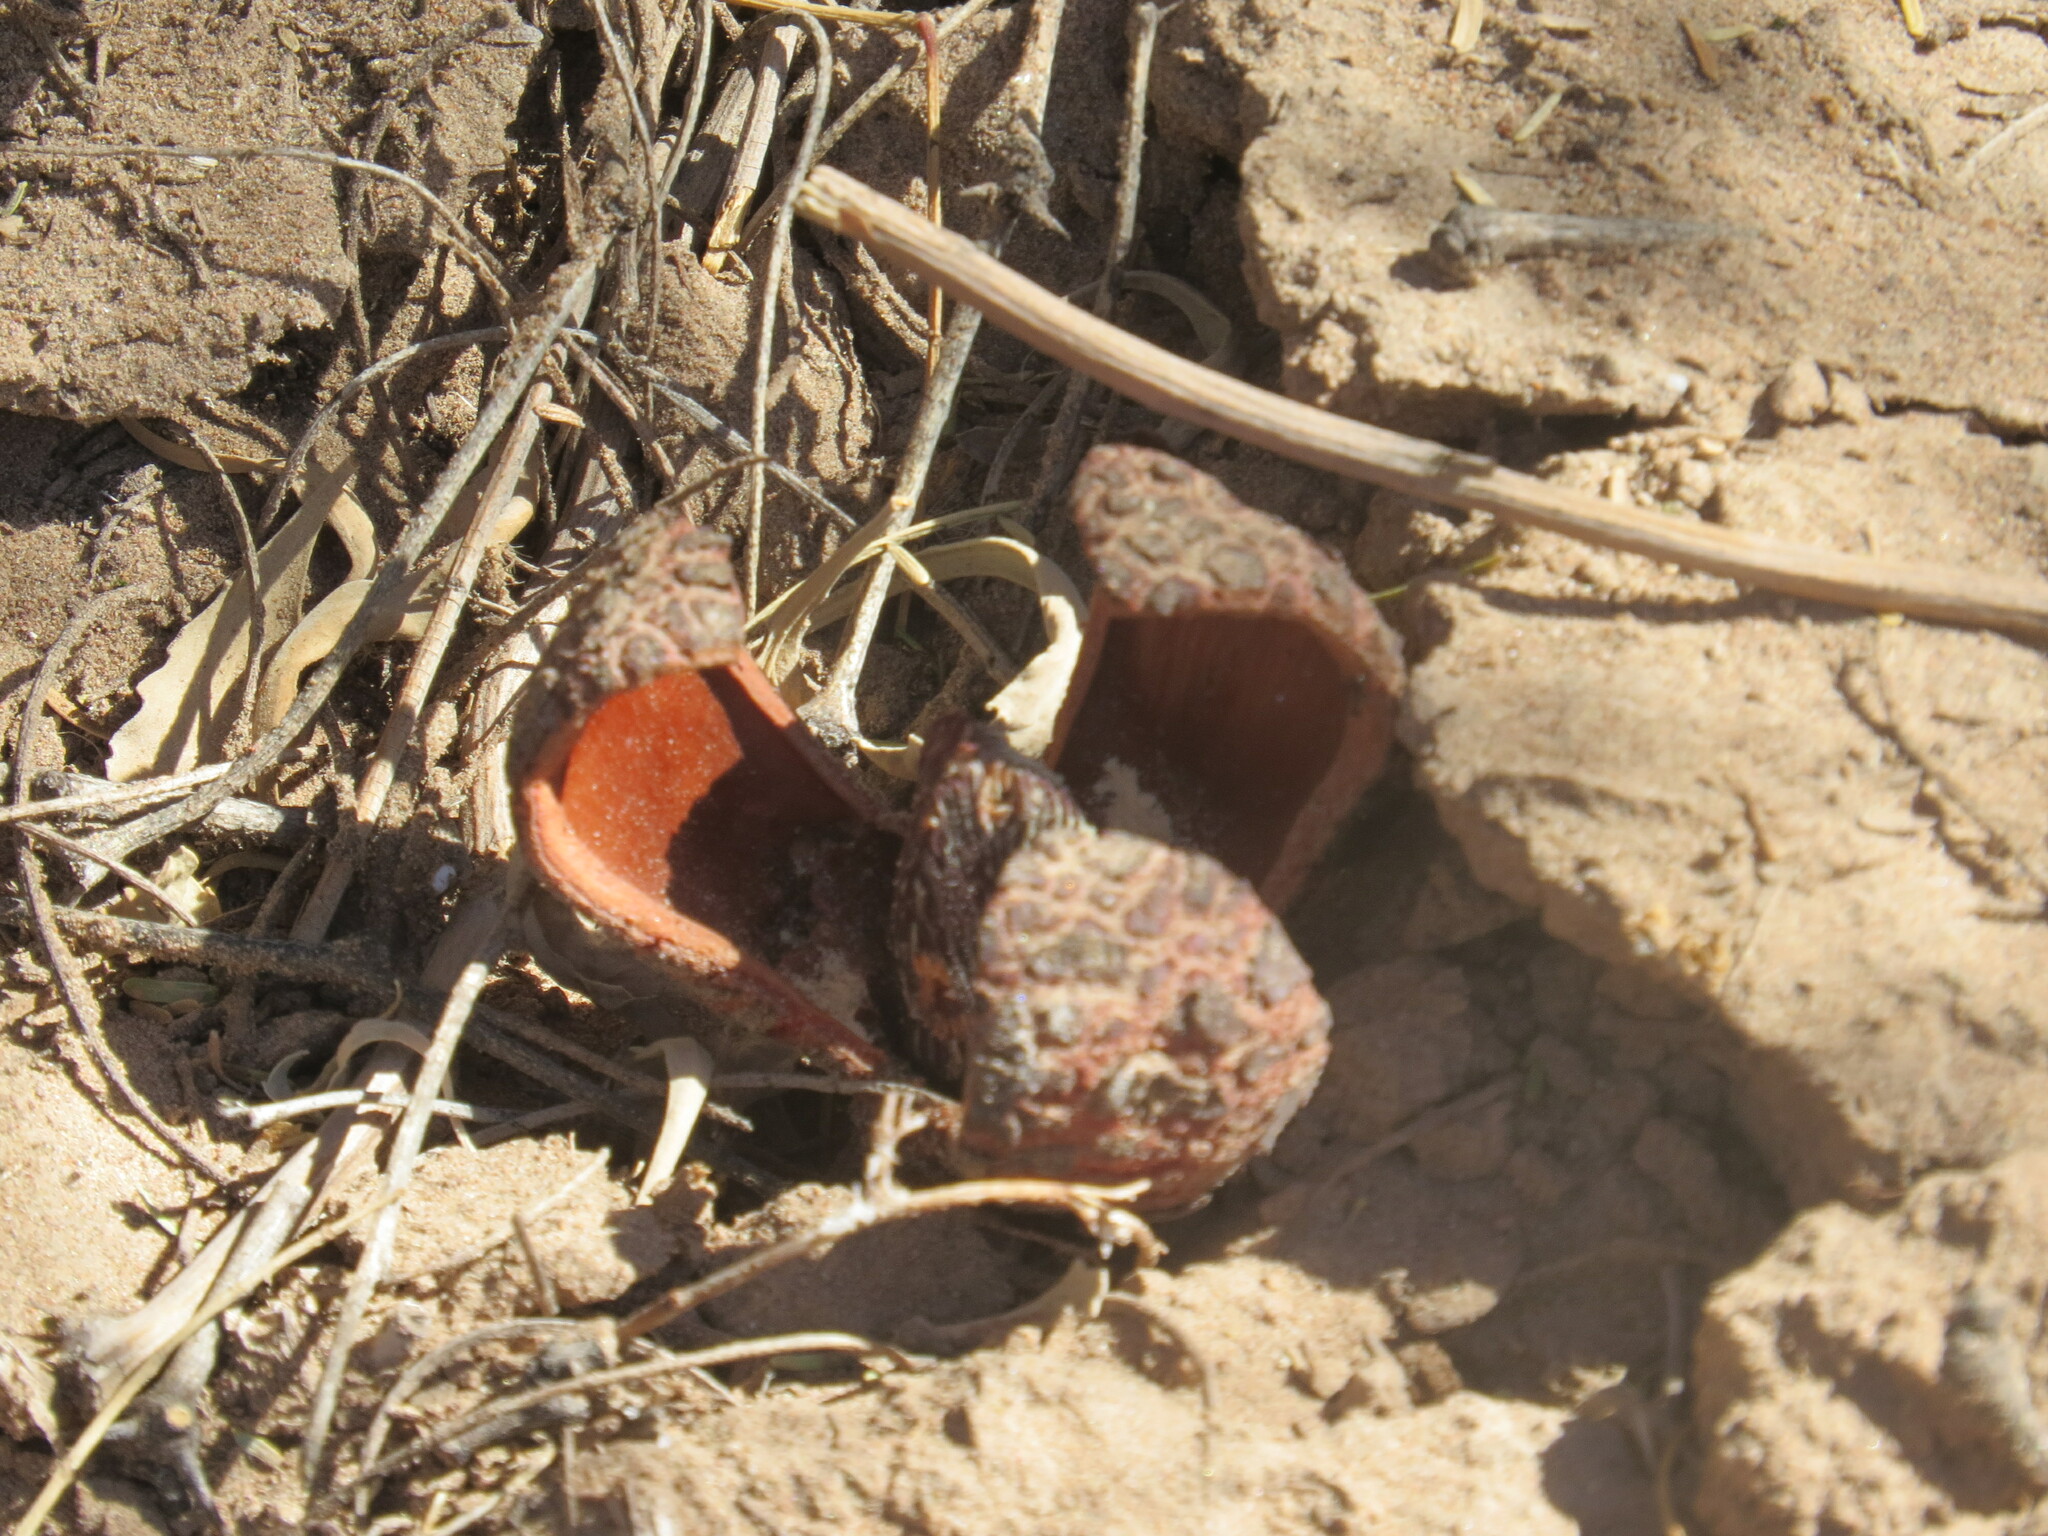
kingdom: Plantae
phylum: Tracheophyta
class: Magnoliopsida
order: Piperales
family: Hydnoraceae
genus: Prosopanche
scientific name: Prosopanche americana
